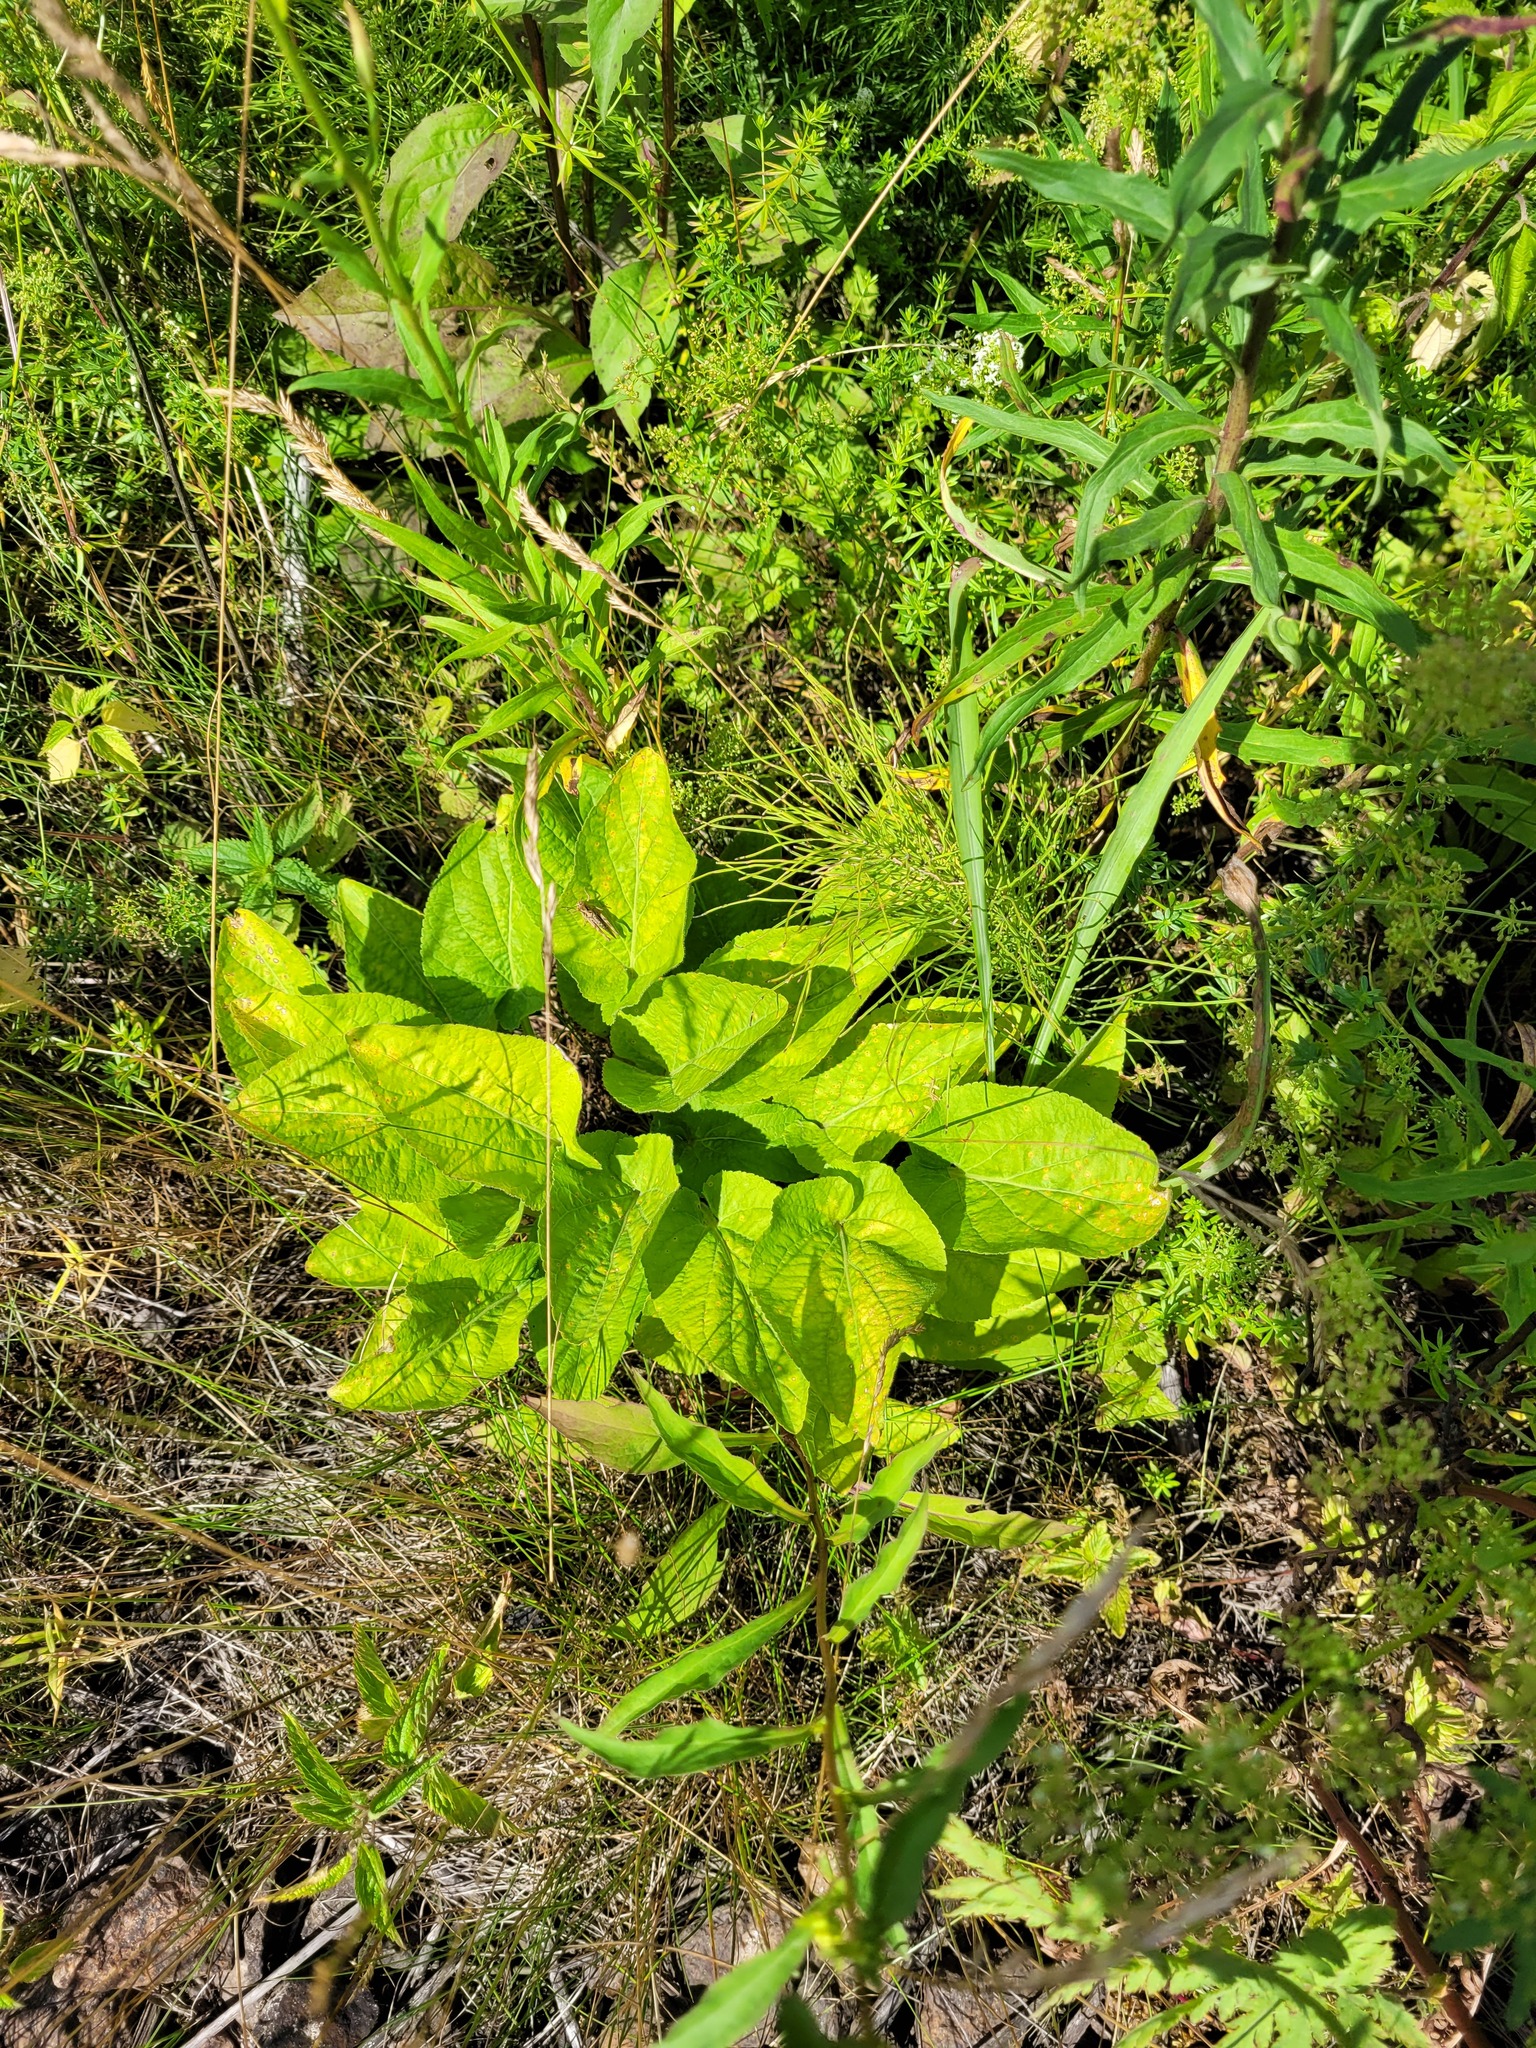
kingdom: Plantae
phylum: Tracheophyta
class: Magnoliopsida
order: Malpighiales
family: Violaceae
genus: Viola
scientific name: Viola hirta
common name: Hairy violet
